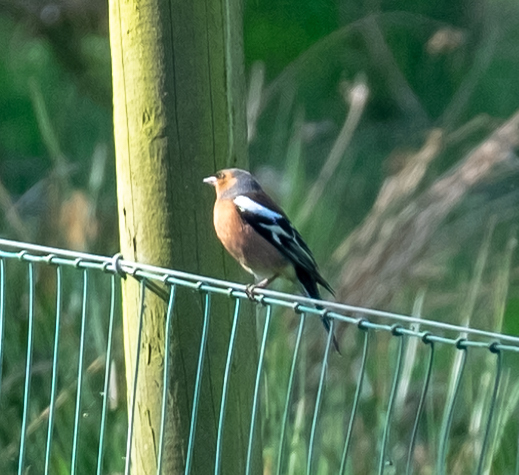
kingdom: Animalia
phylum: Chordata
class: Aves
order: Passeriformes
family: Fringillidae
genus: Fringilla
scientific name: Fringilla coelebs
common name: Common chaffinch
